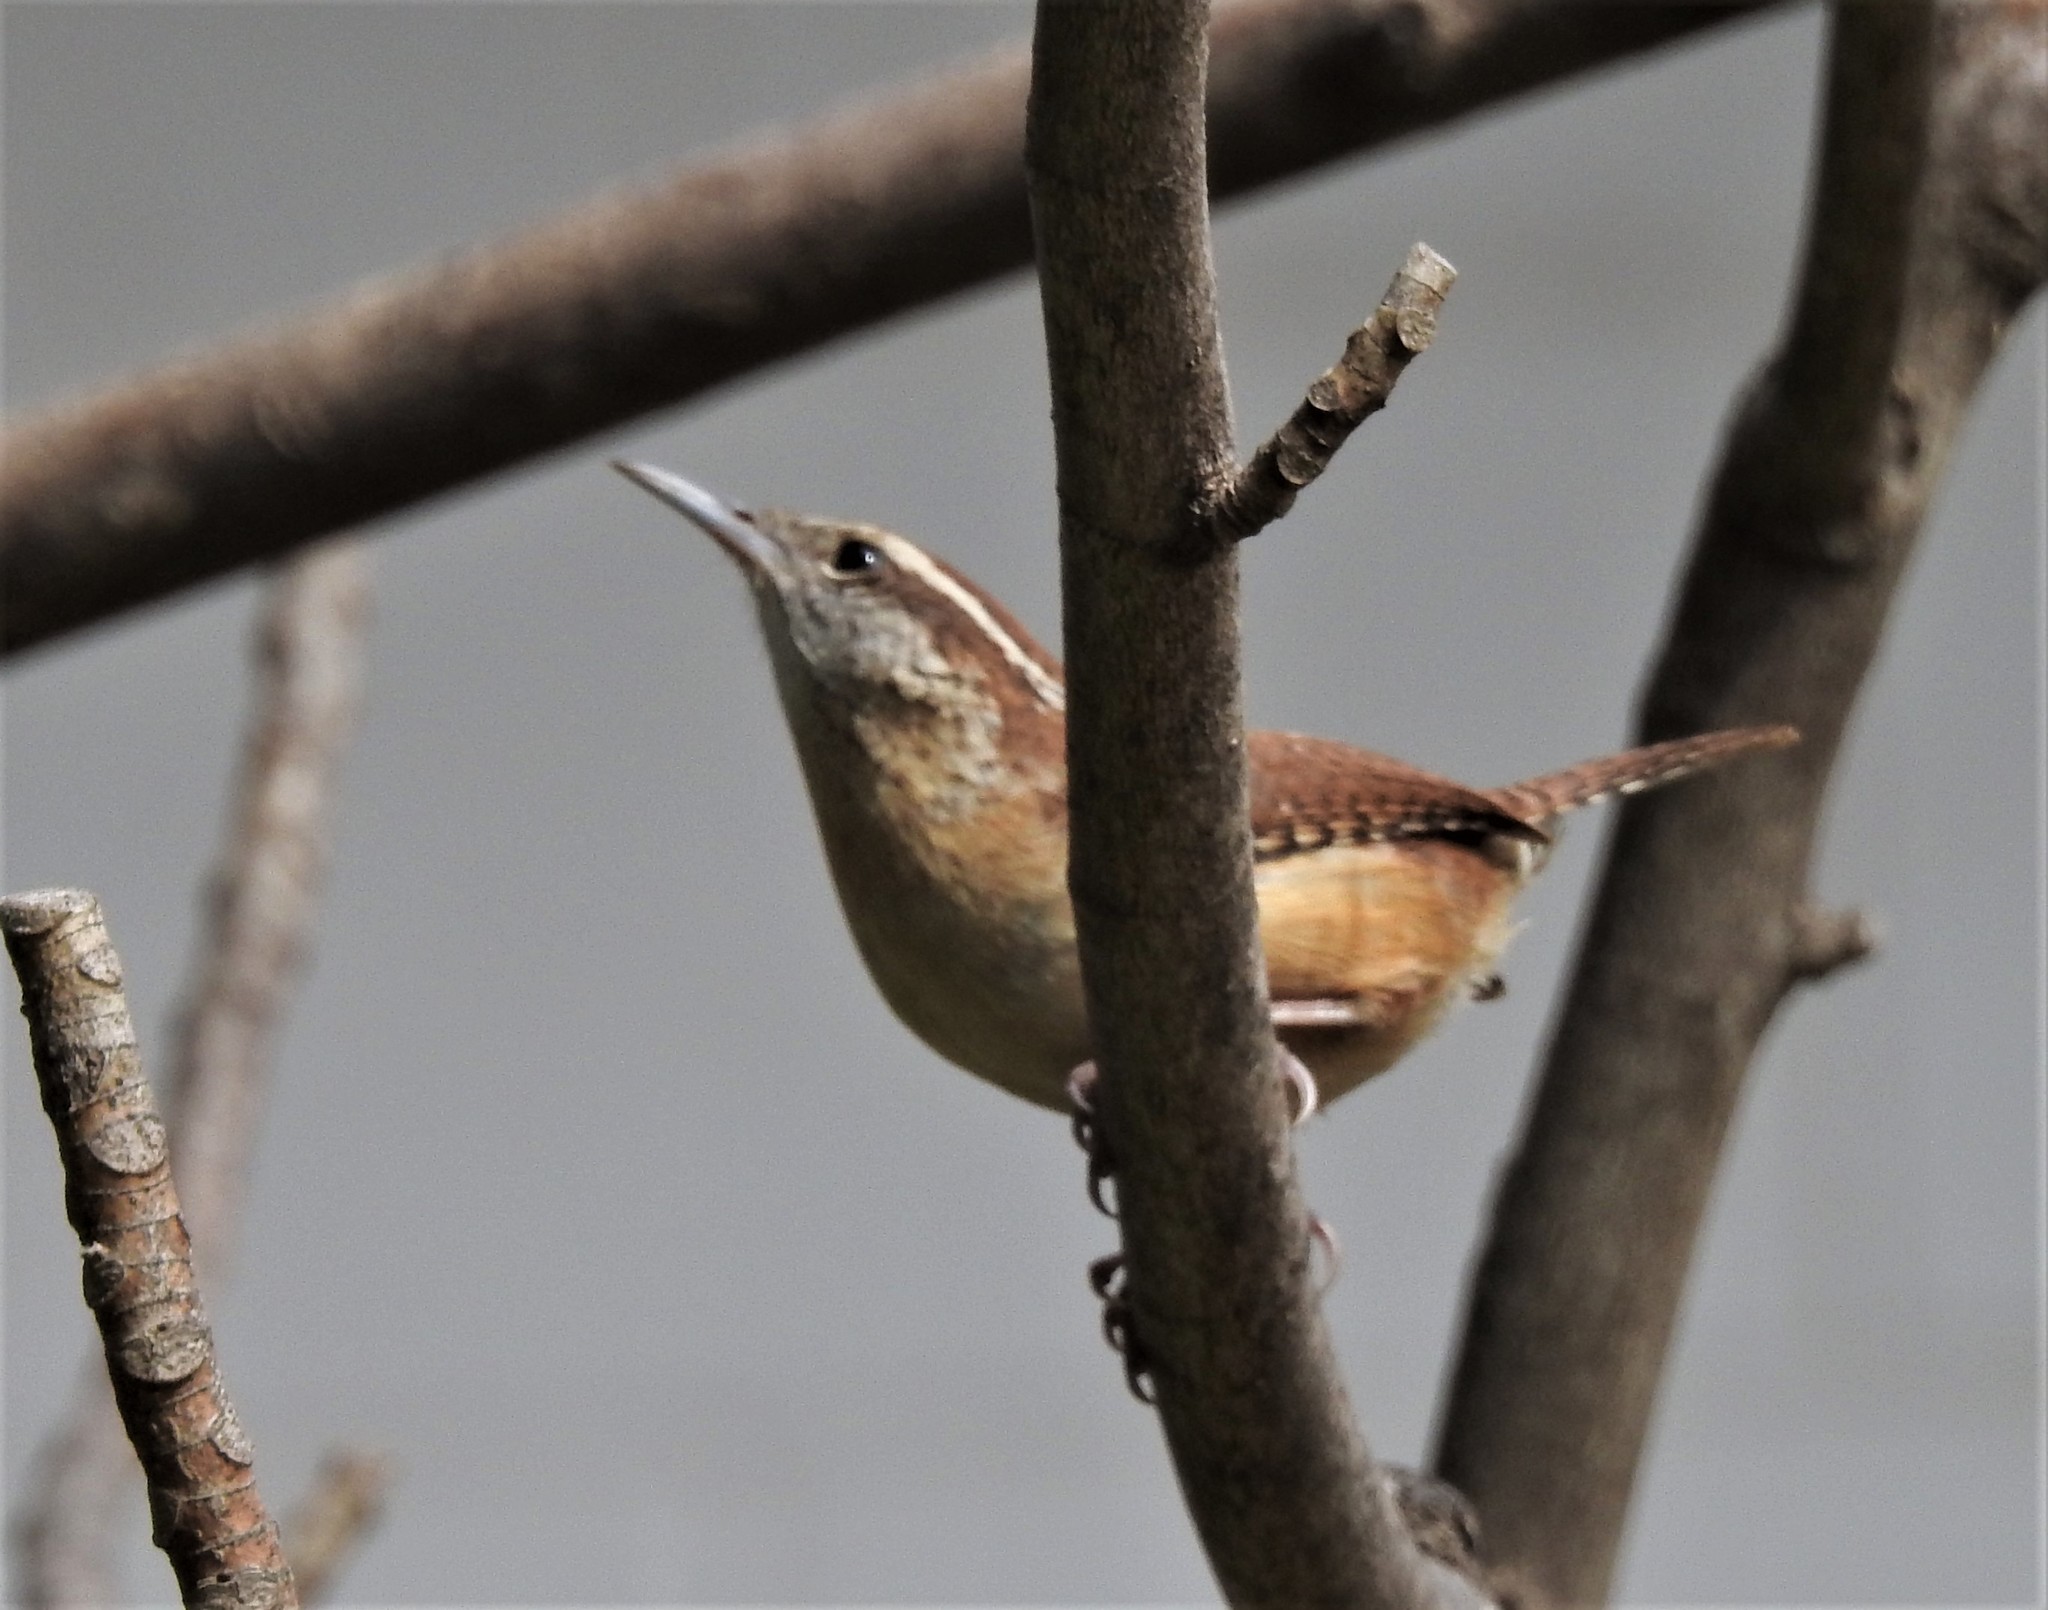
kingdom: Animalia
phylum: Chordata
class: Aves
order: Passeriformes
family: Troglodytidae
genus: Thryothorus
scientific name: Thryothorus ludovicianus
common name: Carolina wren
